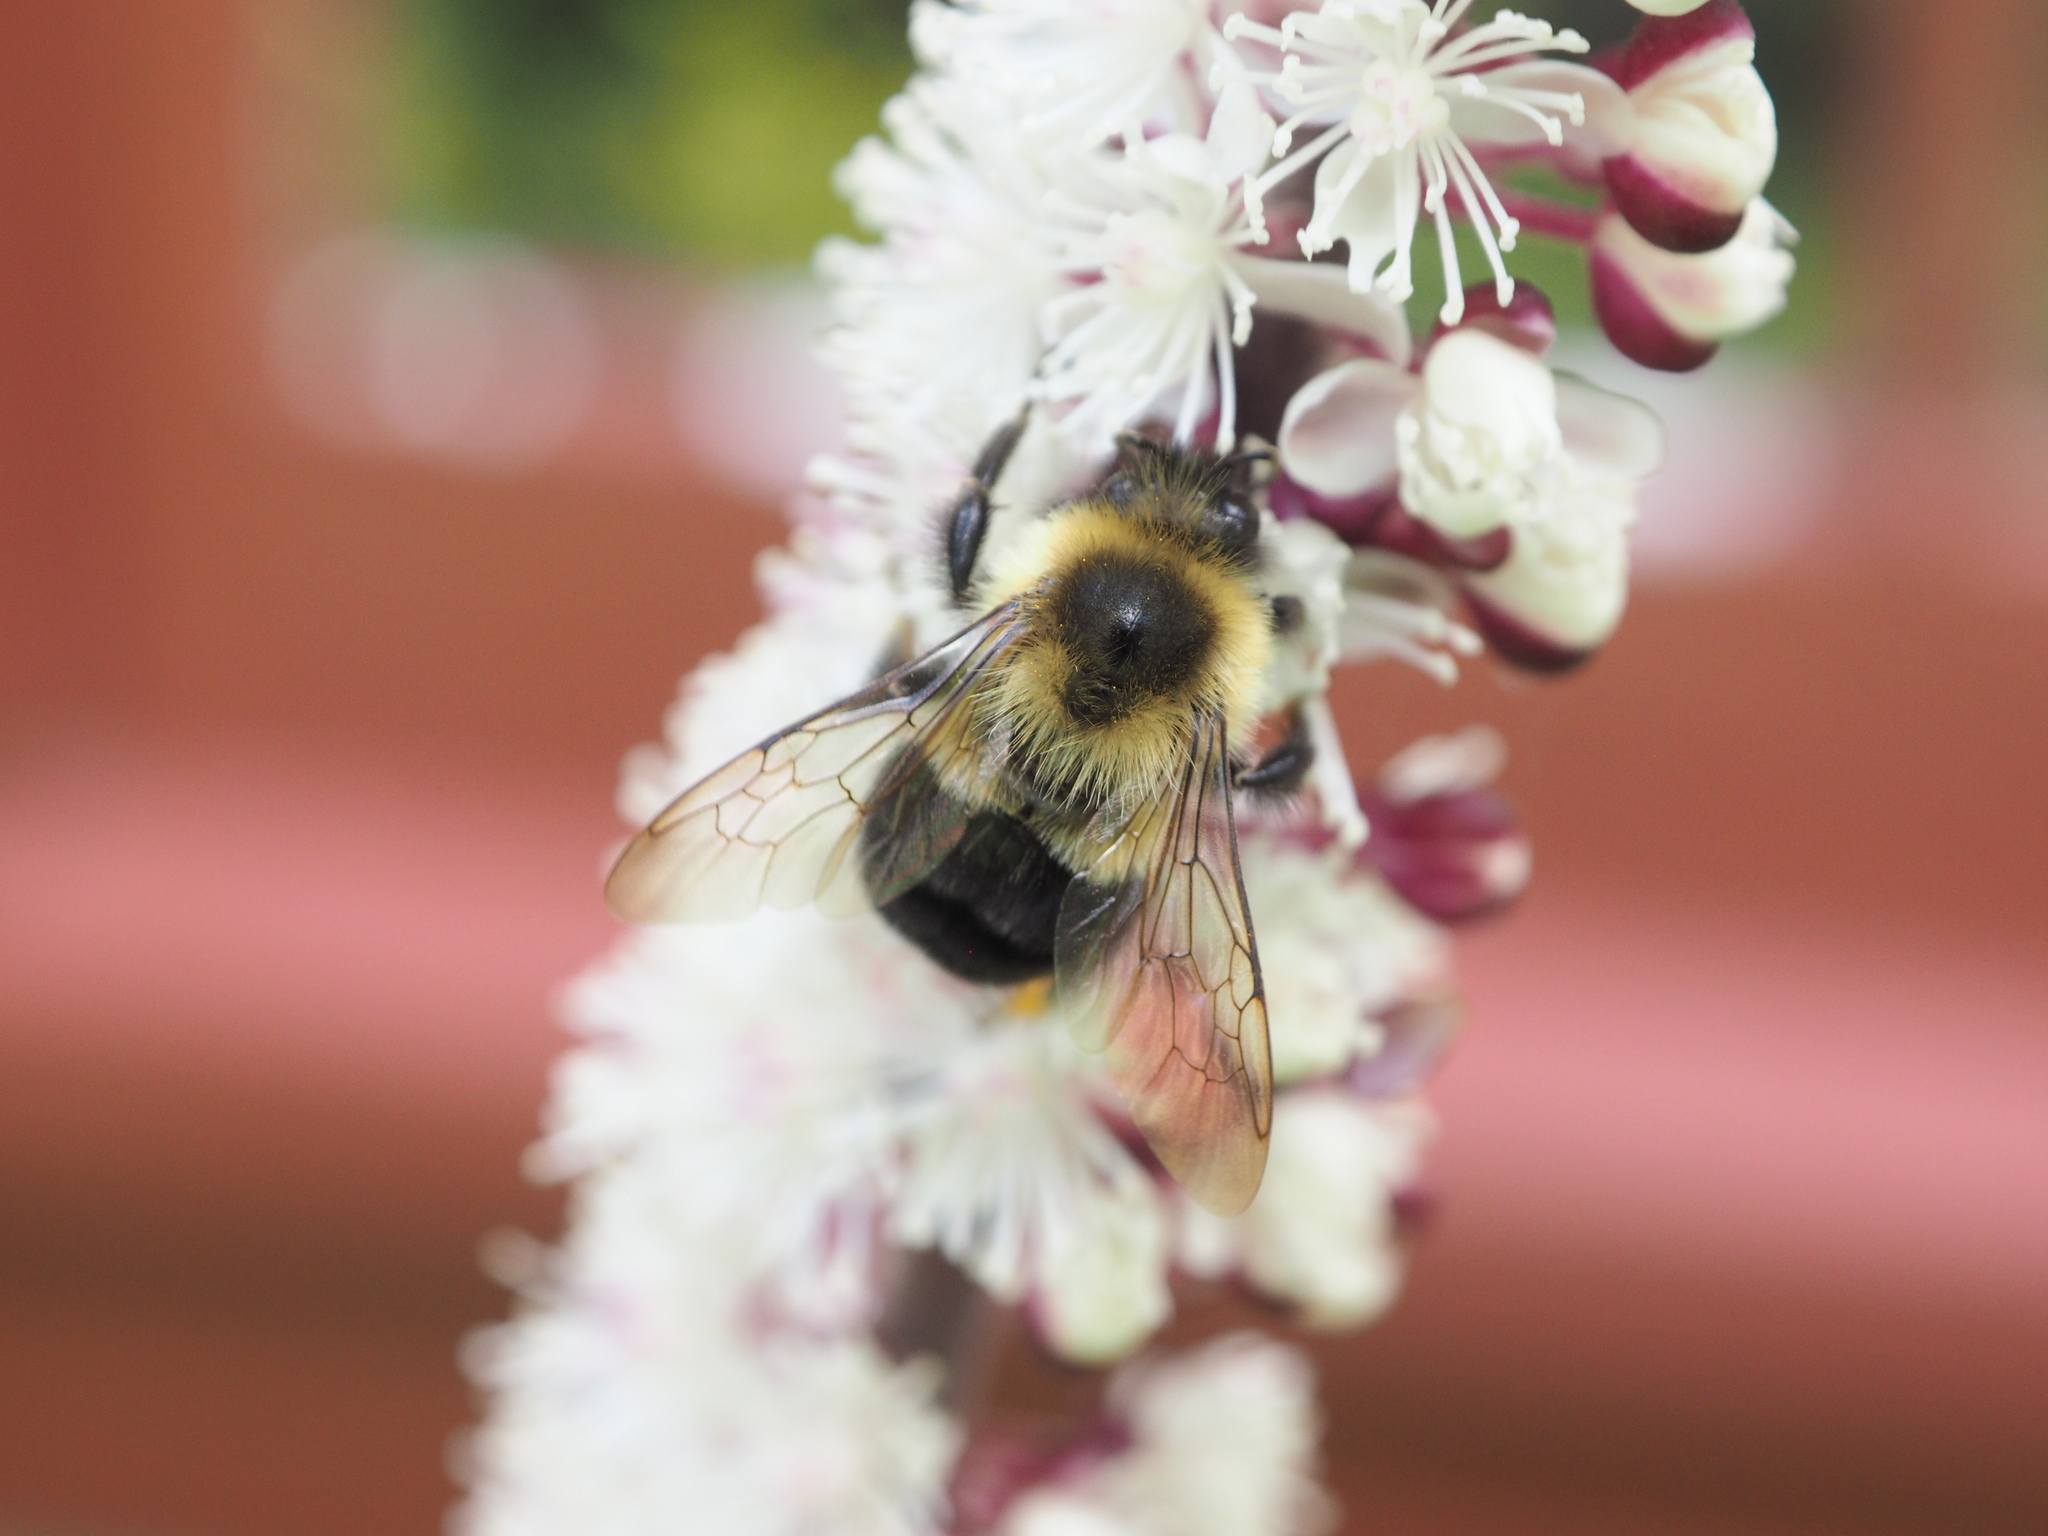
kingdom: Animalia
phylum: Arthropoda
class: Insecta
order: Hymenoptera
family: Apidae
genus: Bombus
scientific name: Bombus impatiens
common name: Common eastern bumble bee
